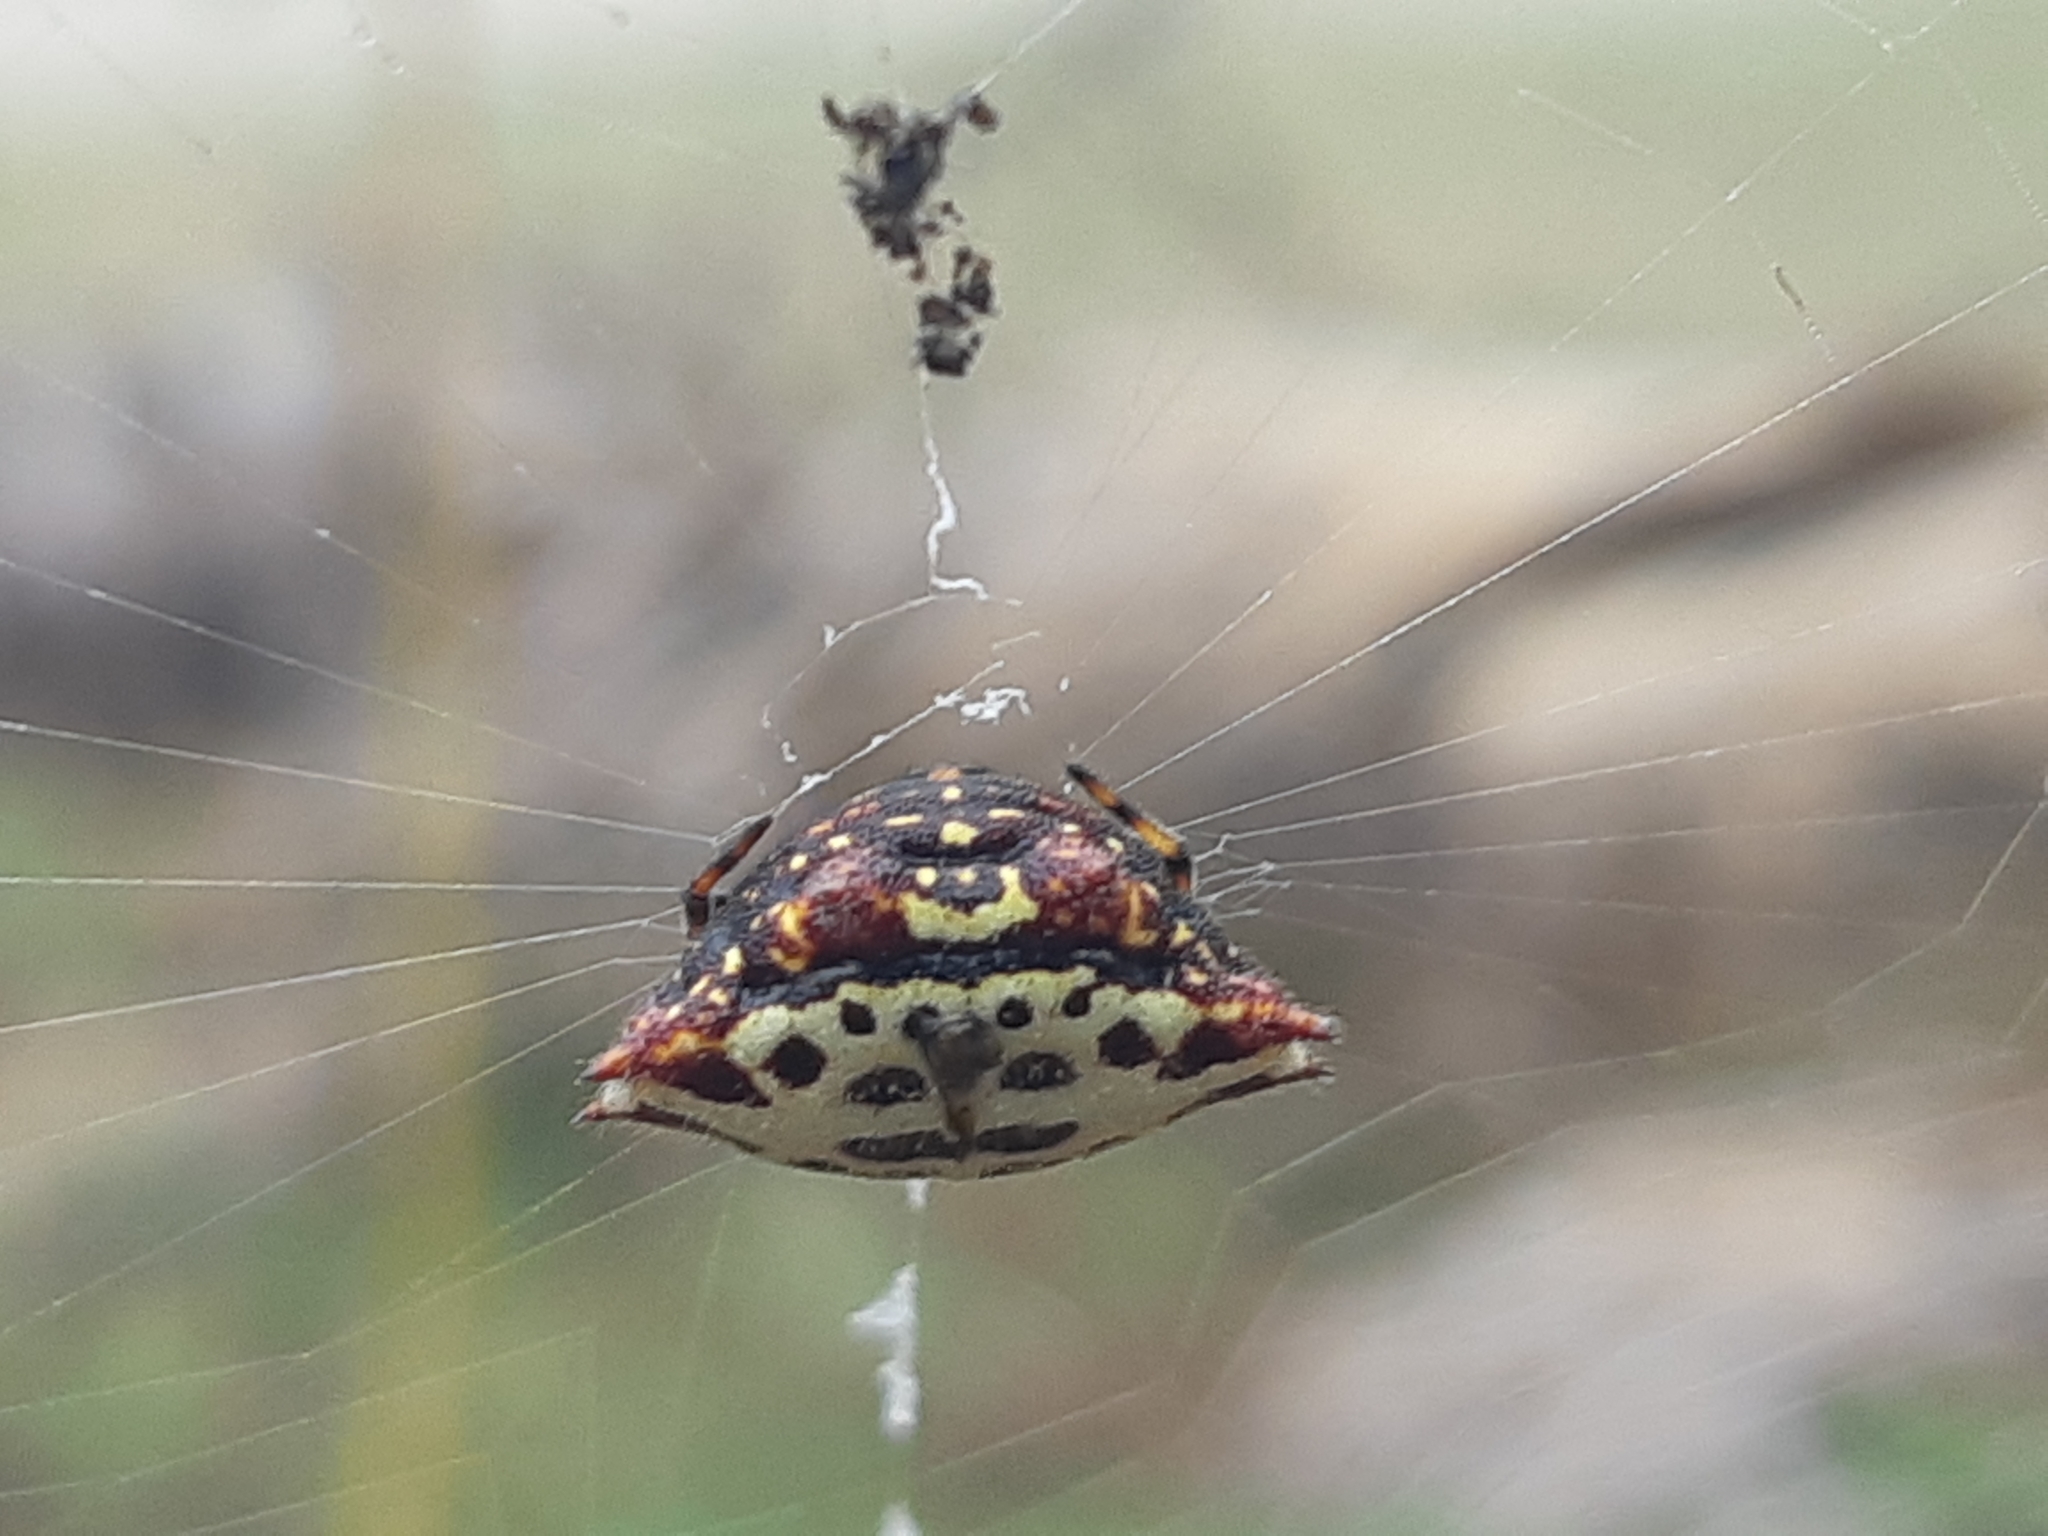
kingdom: Animalia
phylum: Arthropoda
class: Arachnida
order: Araneae
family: Araneidae
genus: Gasteracantha
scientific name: Gasteracantha cancriformis
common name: Orb weavers
